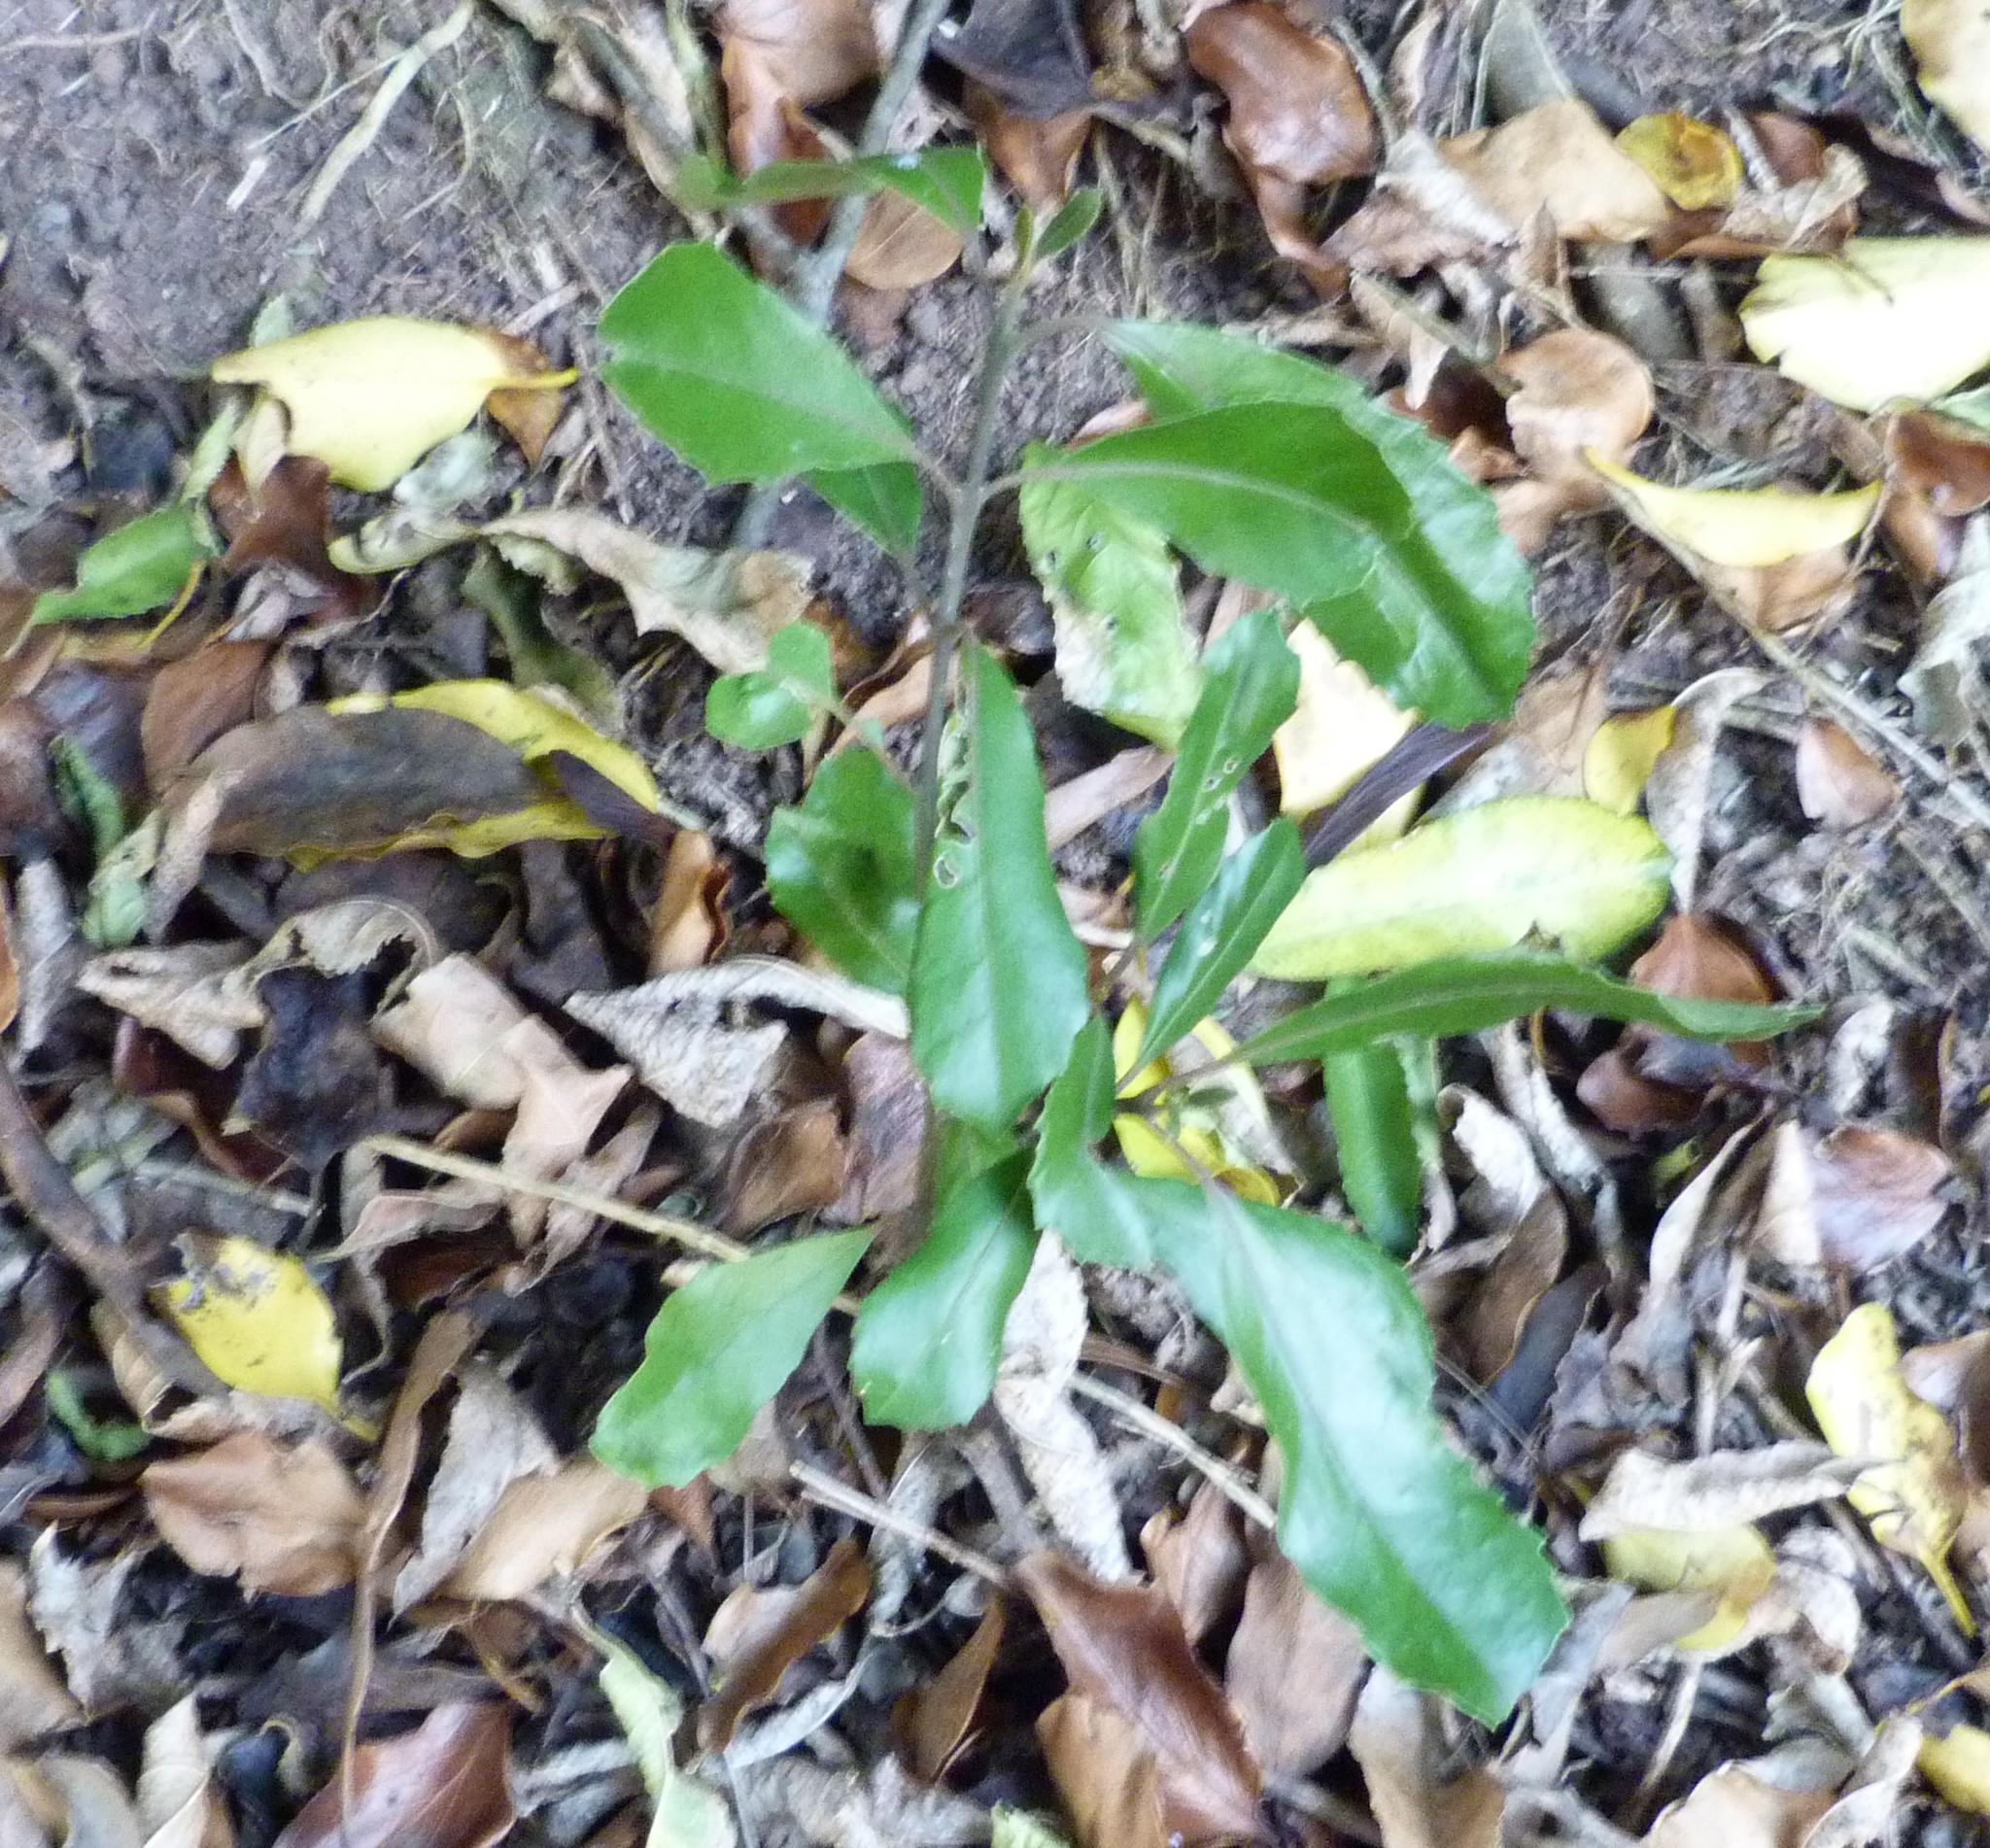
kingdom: Plantae
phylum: Tracheophyta
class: Magnoliopsida
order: Laurales
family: Monimiaceae
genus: Hedycarya
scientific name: Hedycarya arborea
